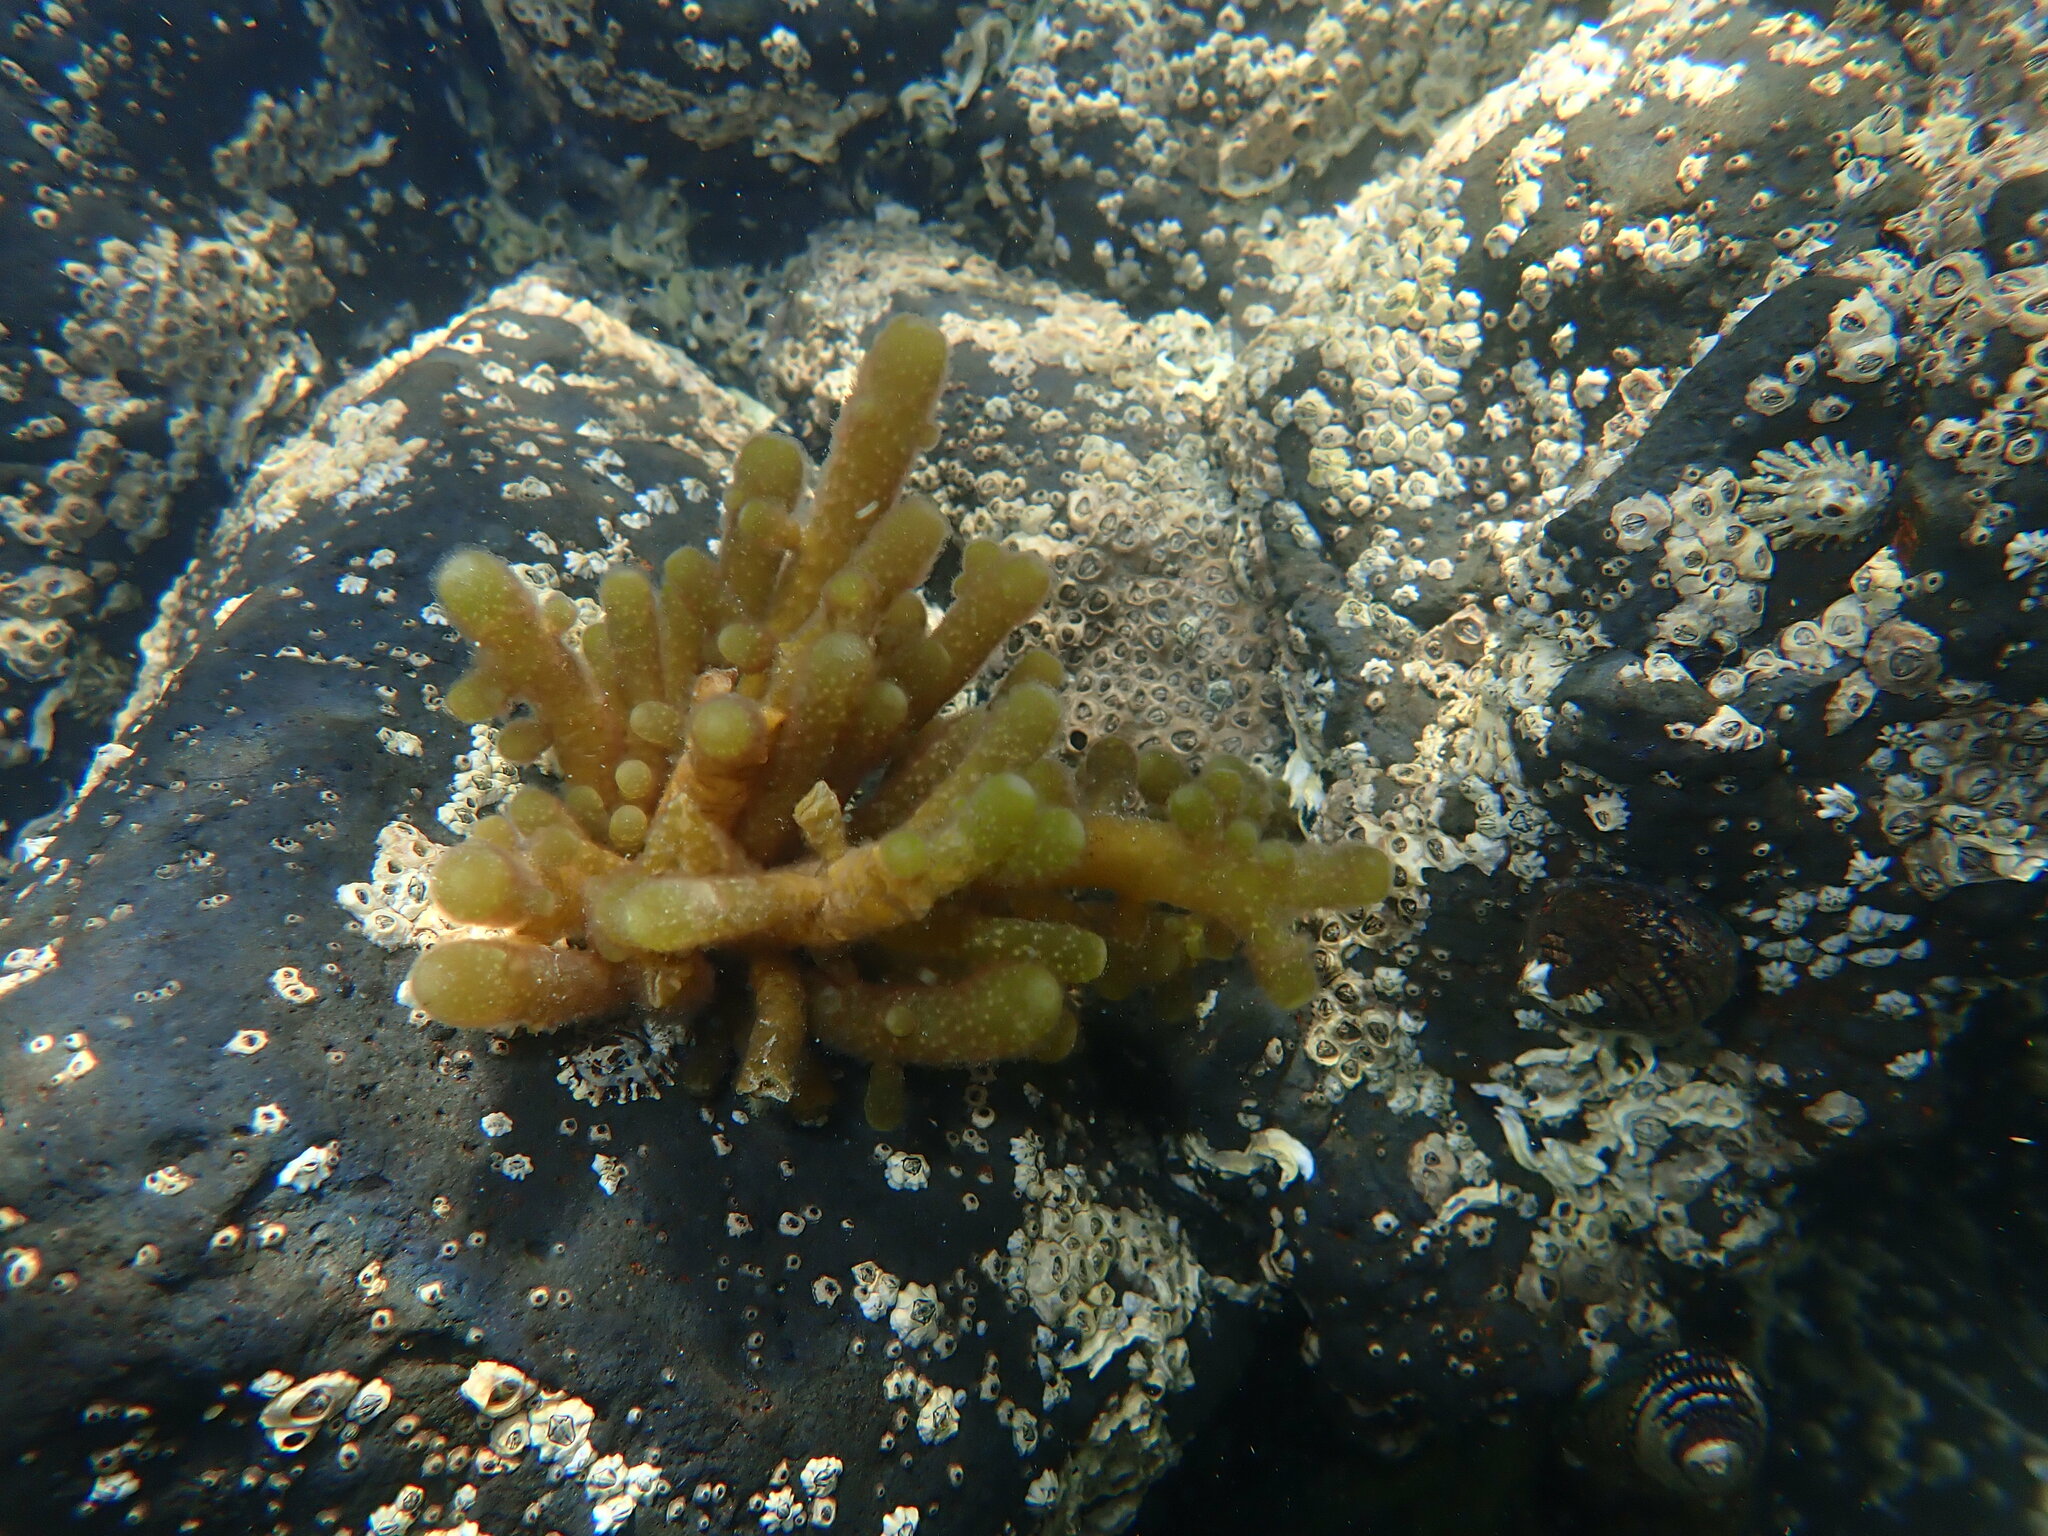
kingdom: Chromista
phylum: Ochrophyta
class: Phaeophyceae
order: Scytothamnales
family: Splachnidiaceae
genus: Splachnidium
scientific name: Splachnidium rugosum
